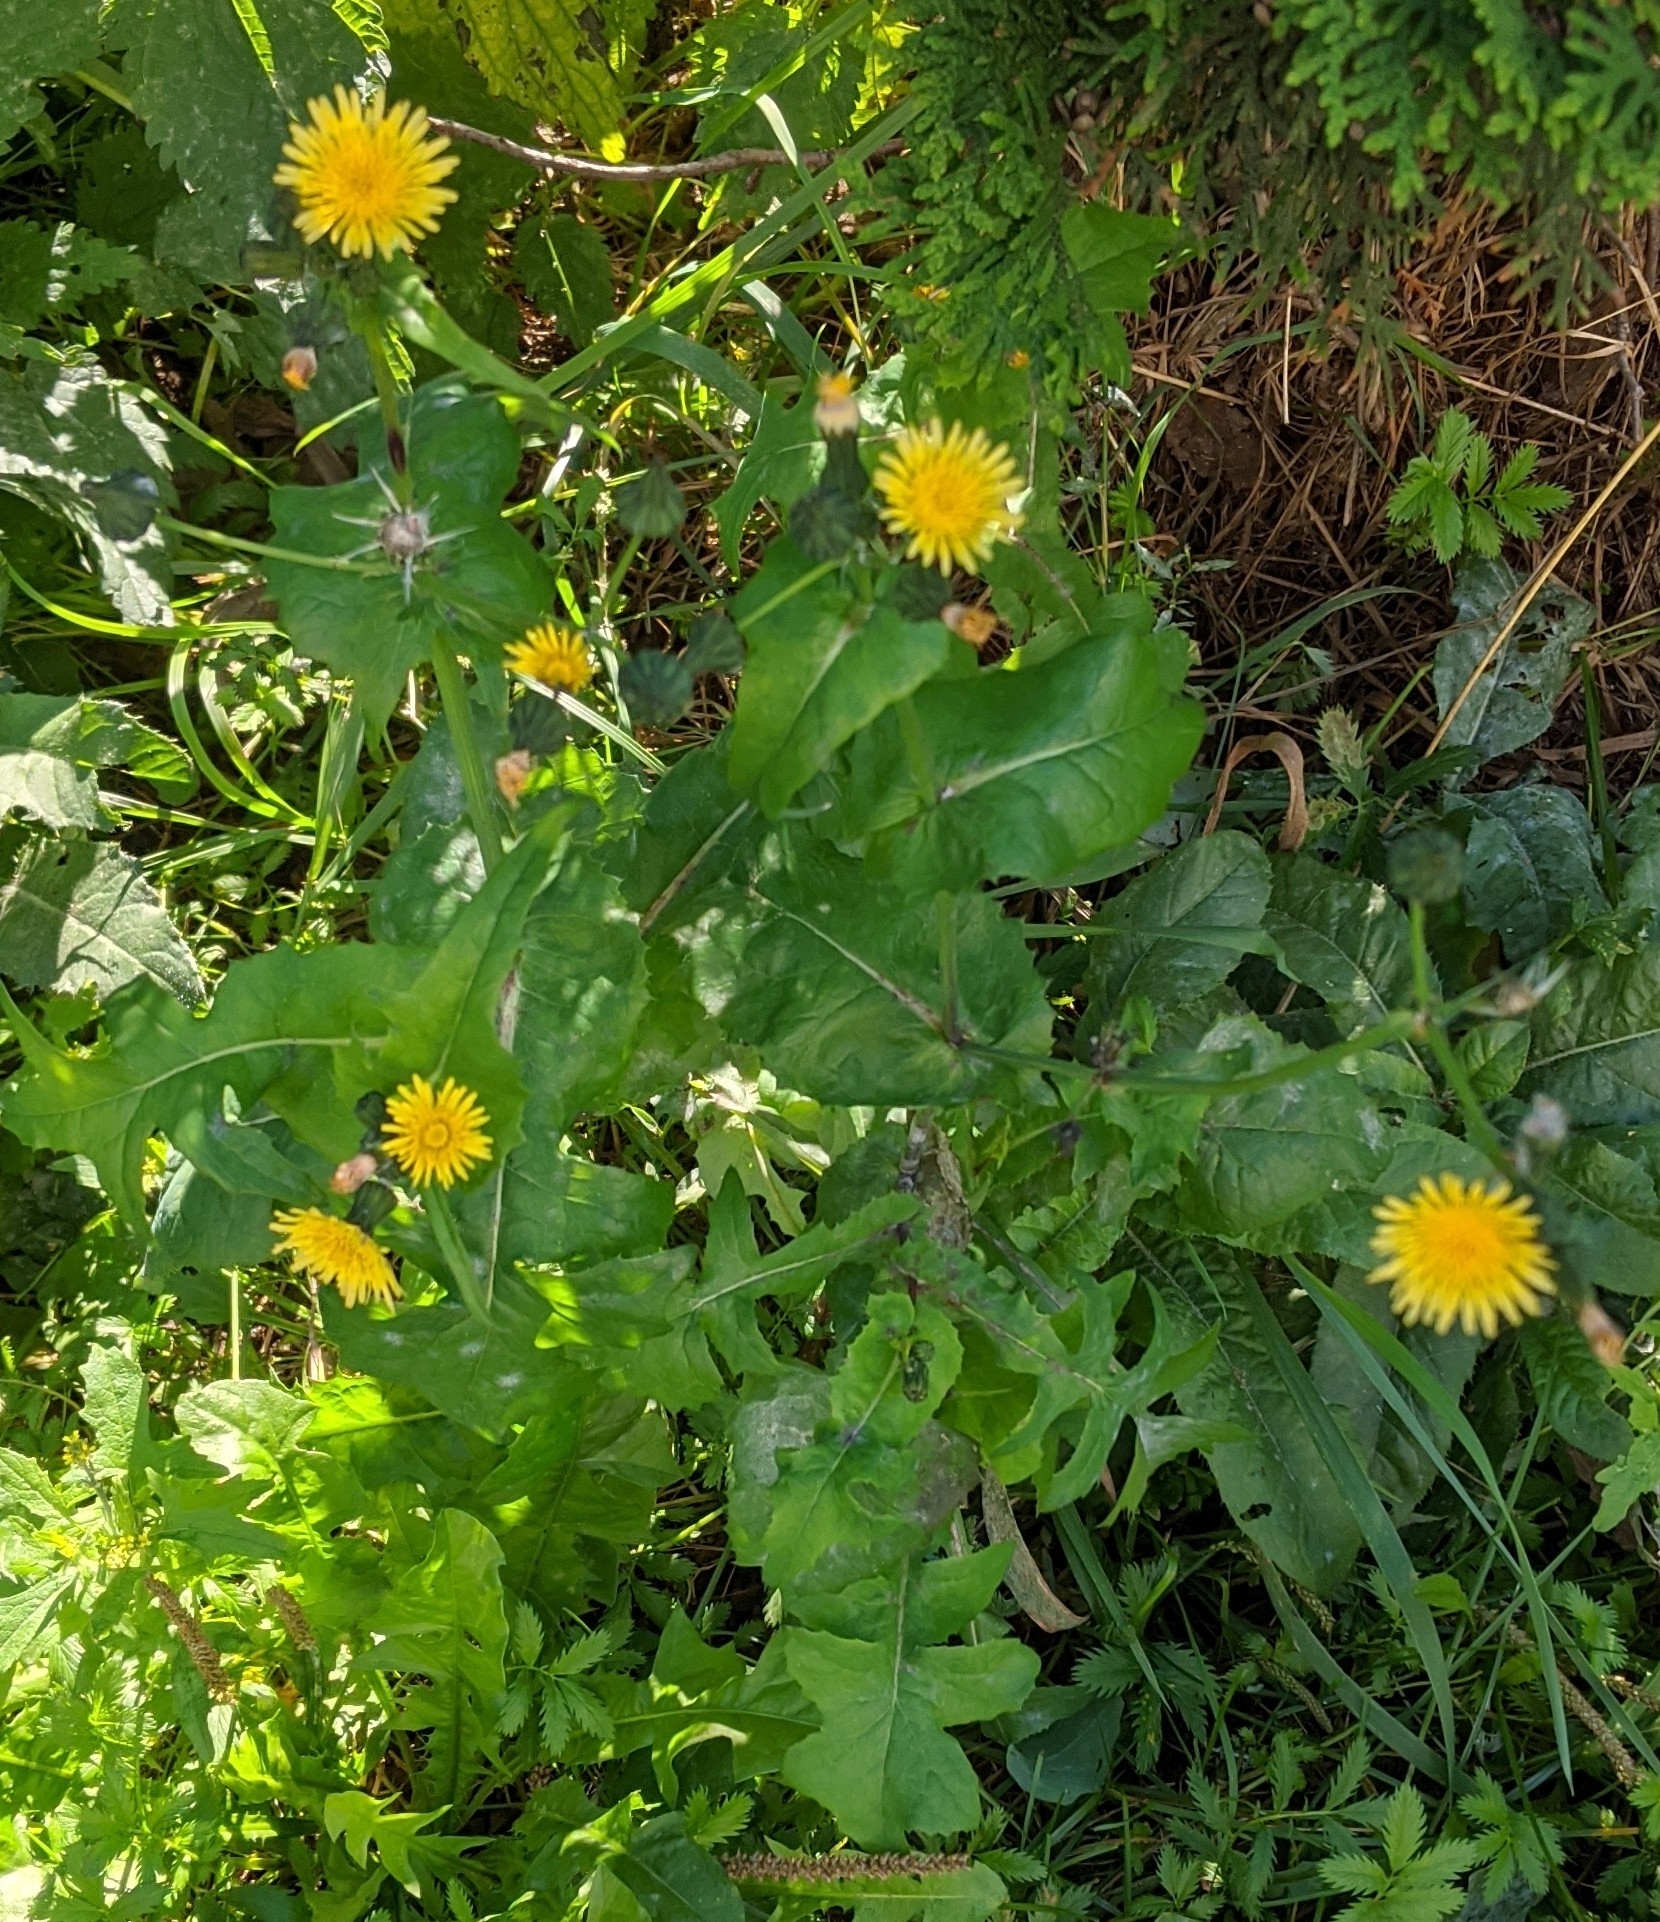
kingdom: Plantae
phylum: Tracheophyta
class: Magnoliopsida
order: Asterales
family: Asteraceae
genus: Sonchus
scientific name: Sonchus oleraceus
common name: Common sowthistle
